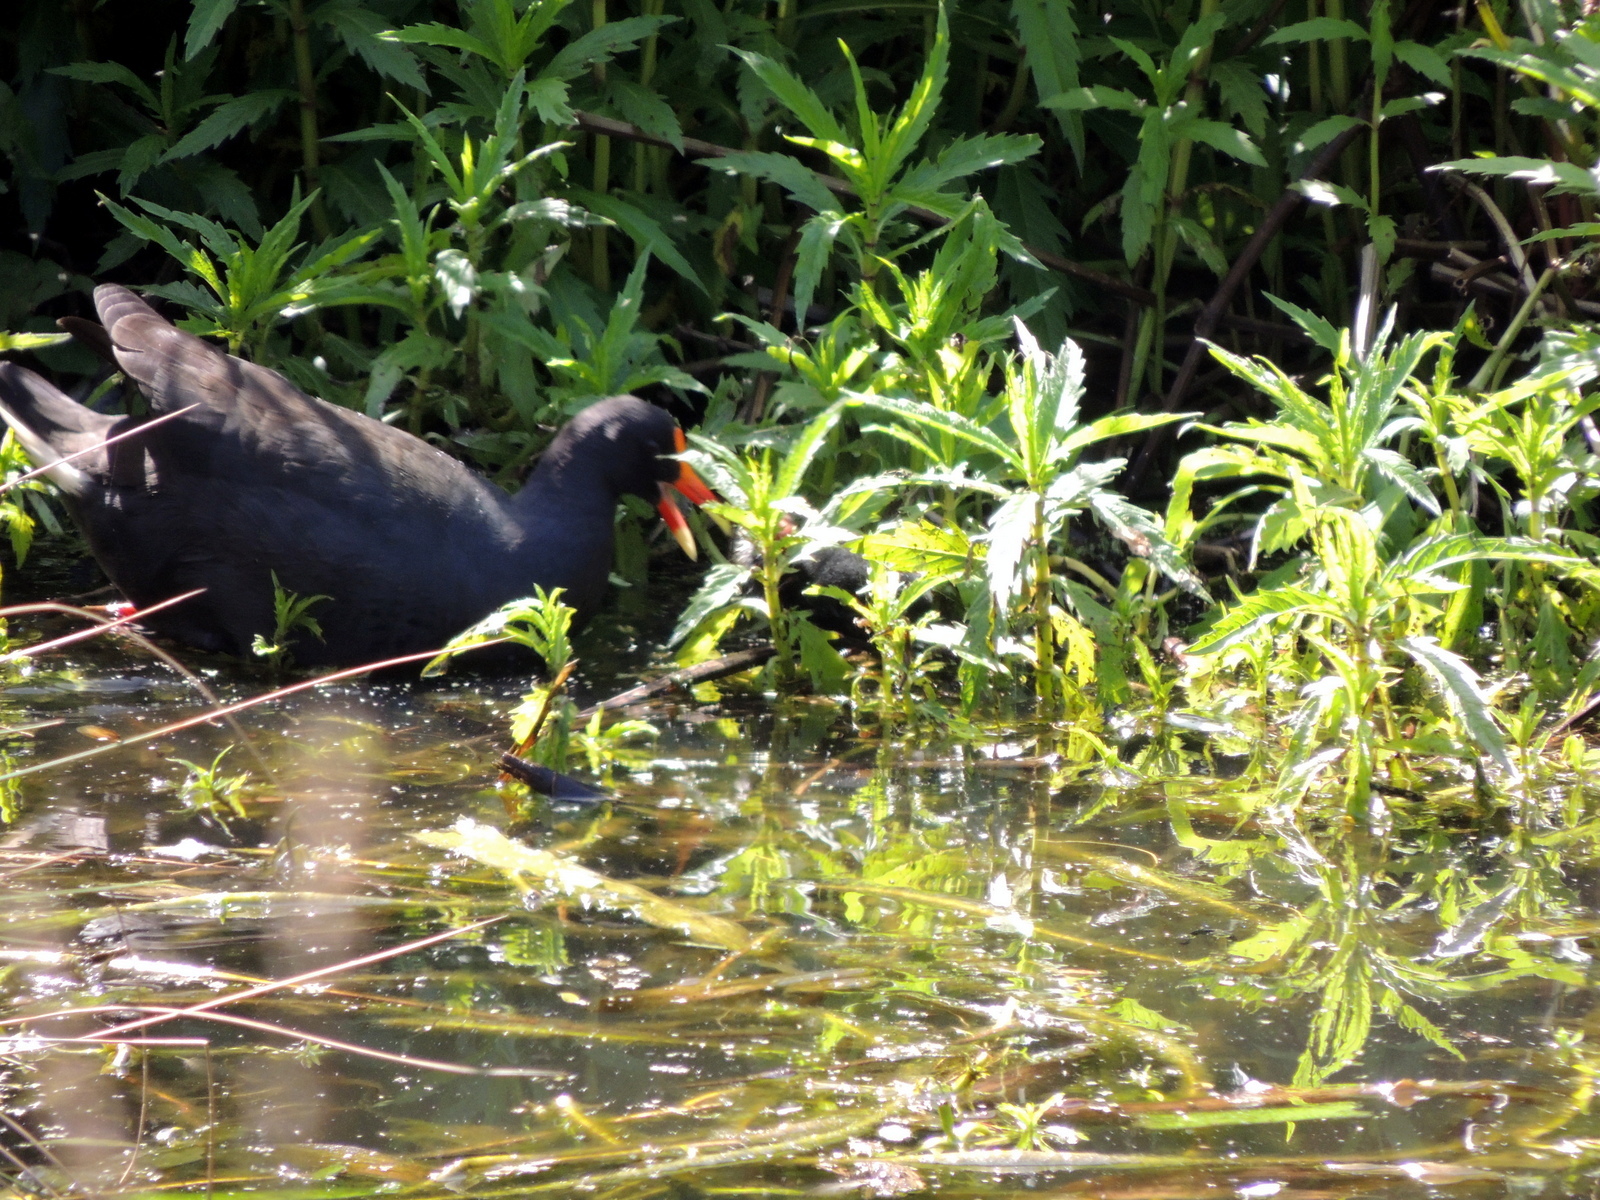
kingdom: Animalia
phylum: Chordata
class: Aves
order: Gruiformes
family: Rallidae
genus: Gallinula
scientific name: Gallinula tenebrosa
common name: Dusky moorhen
